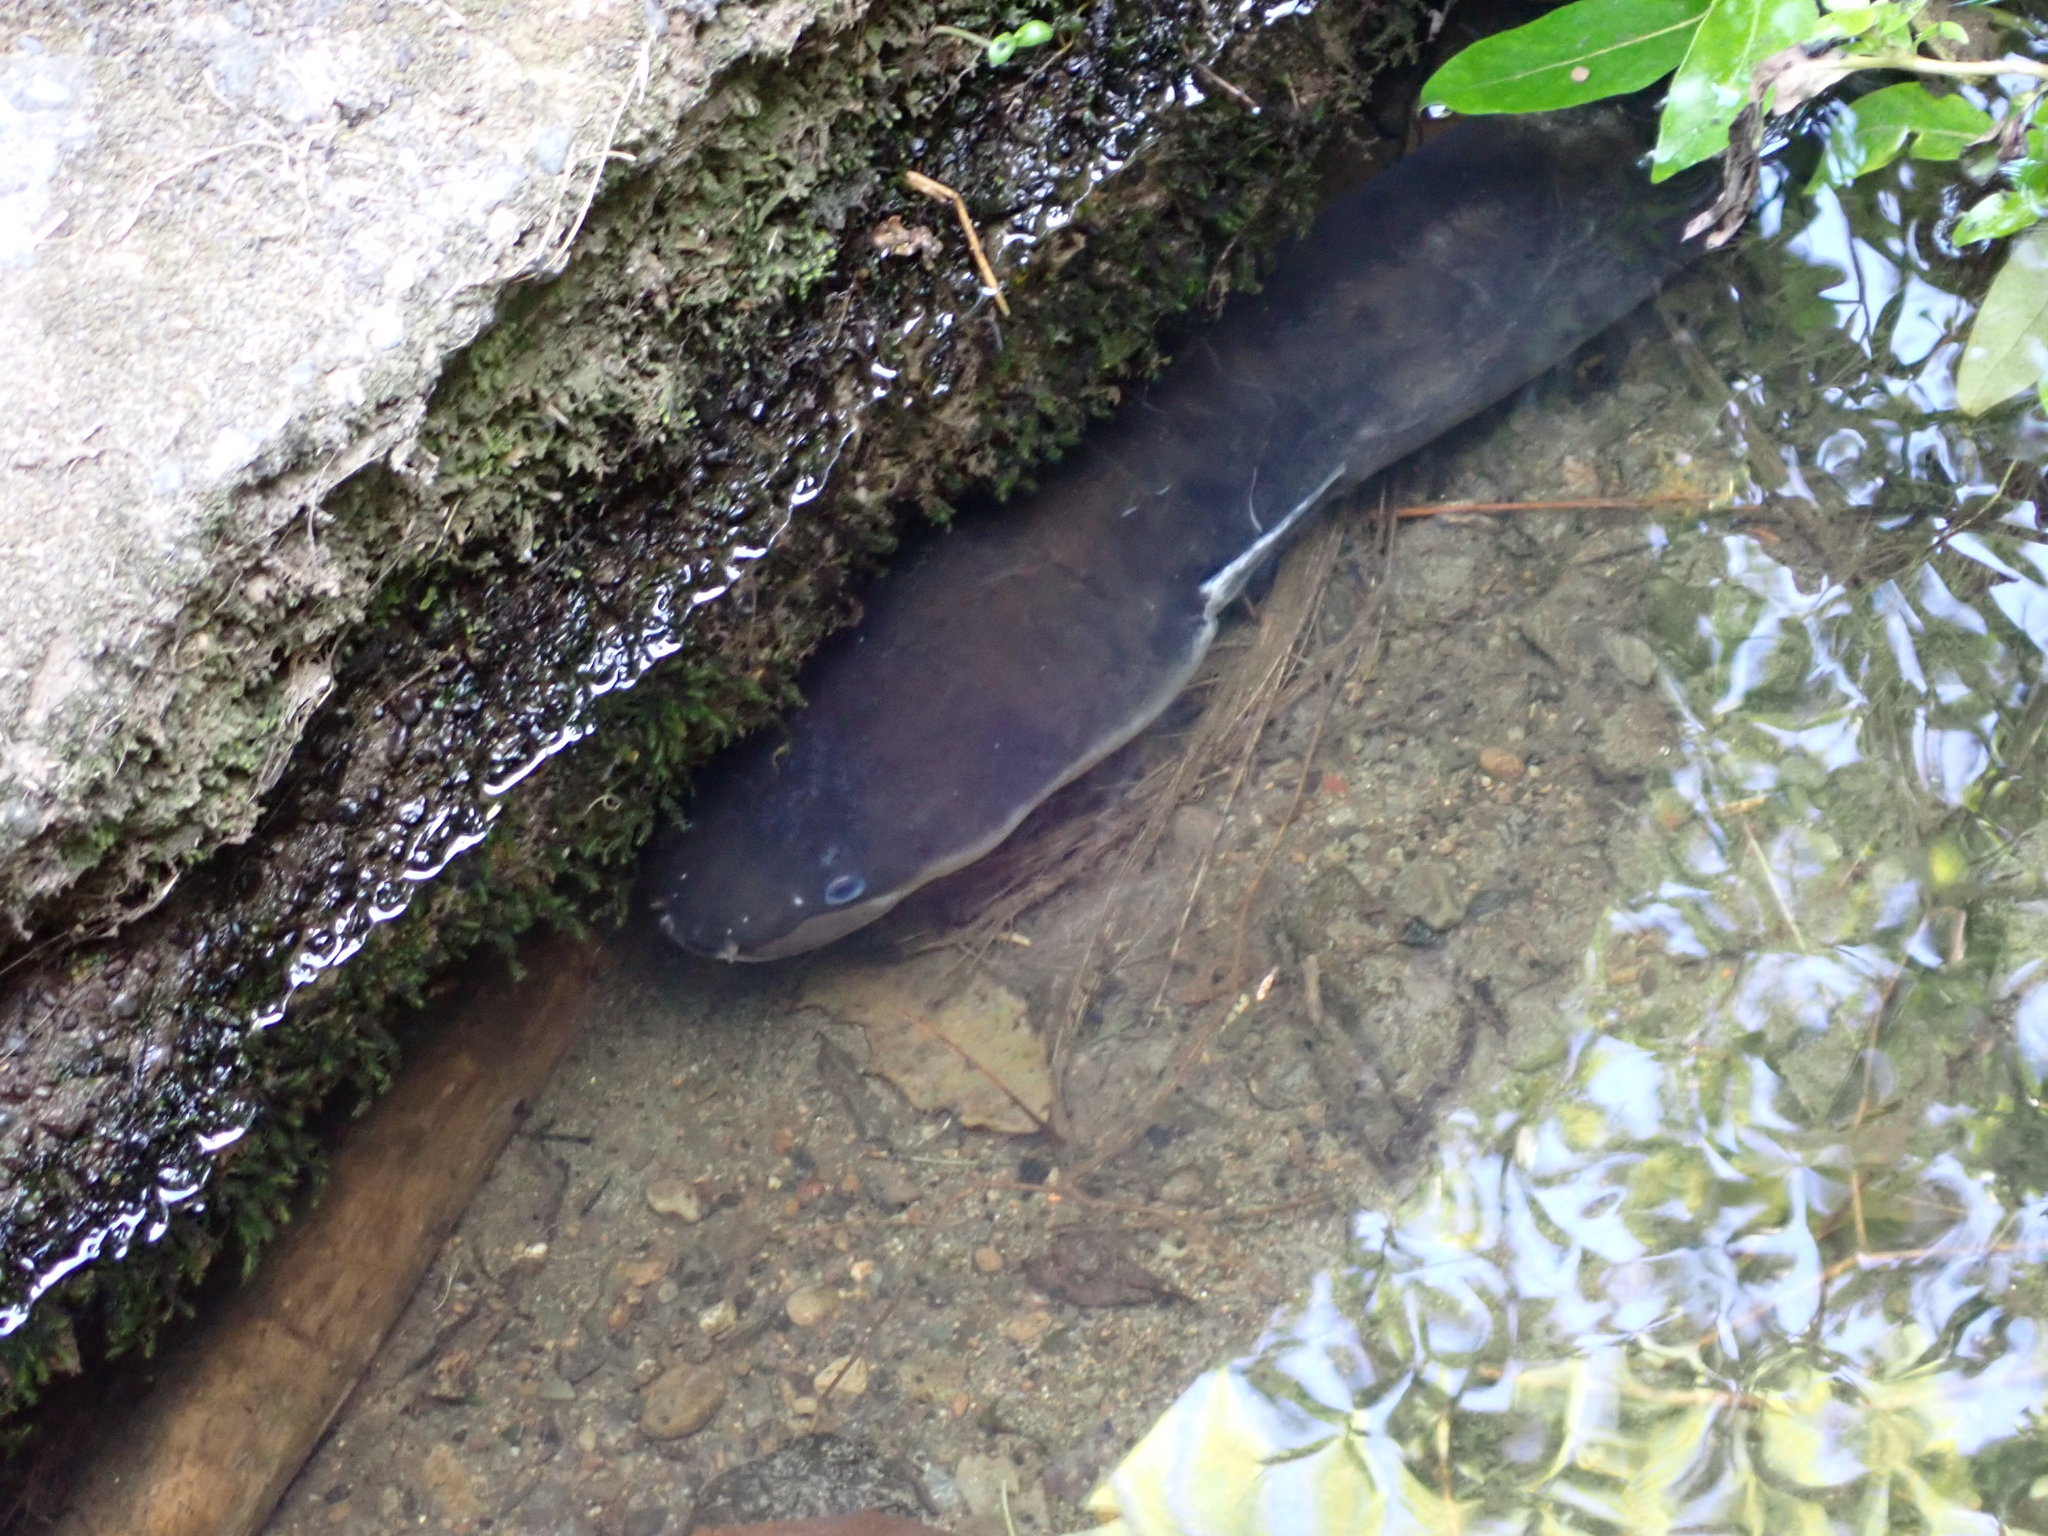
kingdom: Animalia
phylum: Chordata
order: Anguilliformes
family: Anguillidae
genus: Anguilla
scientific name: Anguilla dieffenbachii
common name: New zealand longfin eel
